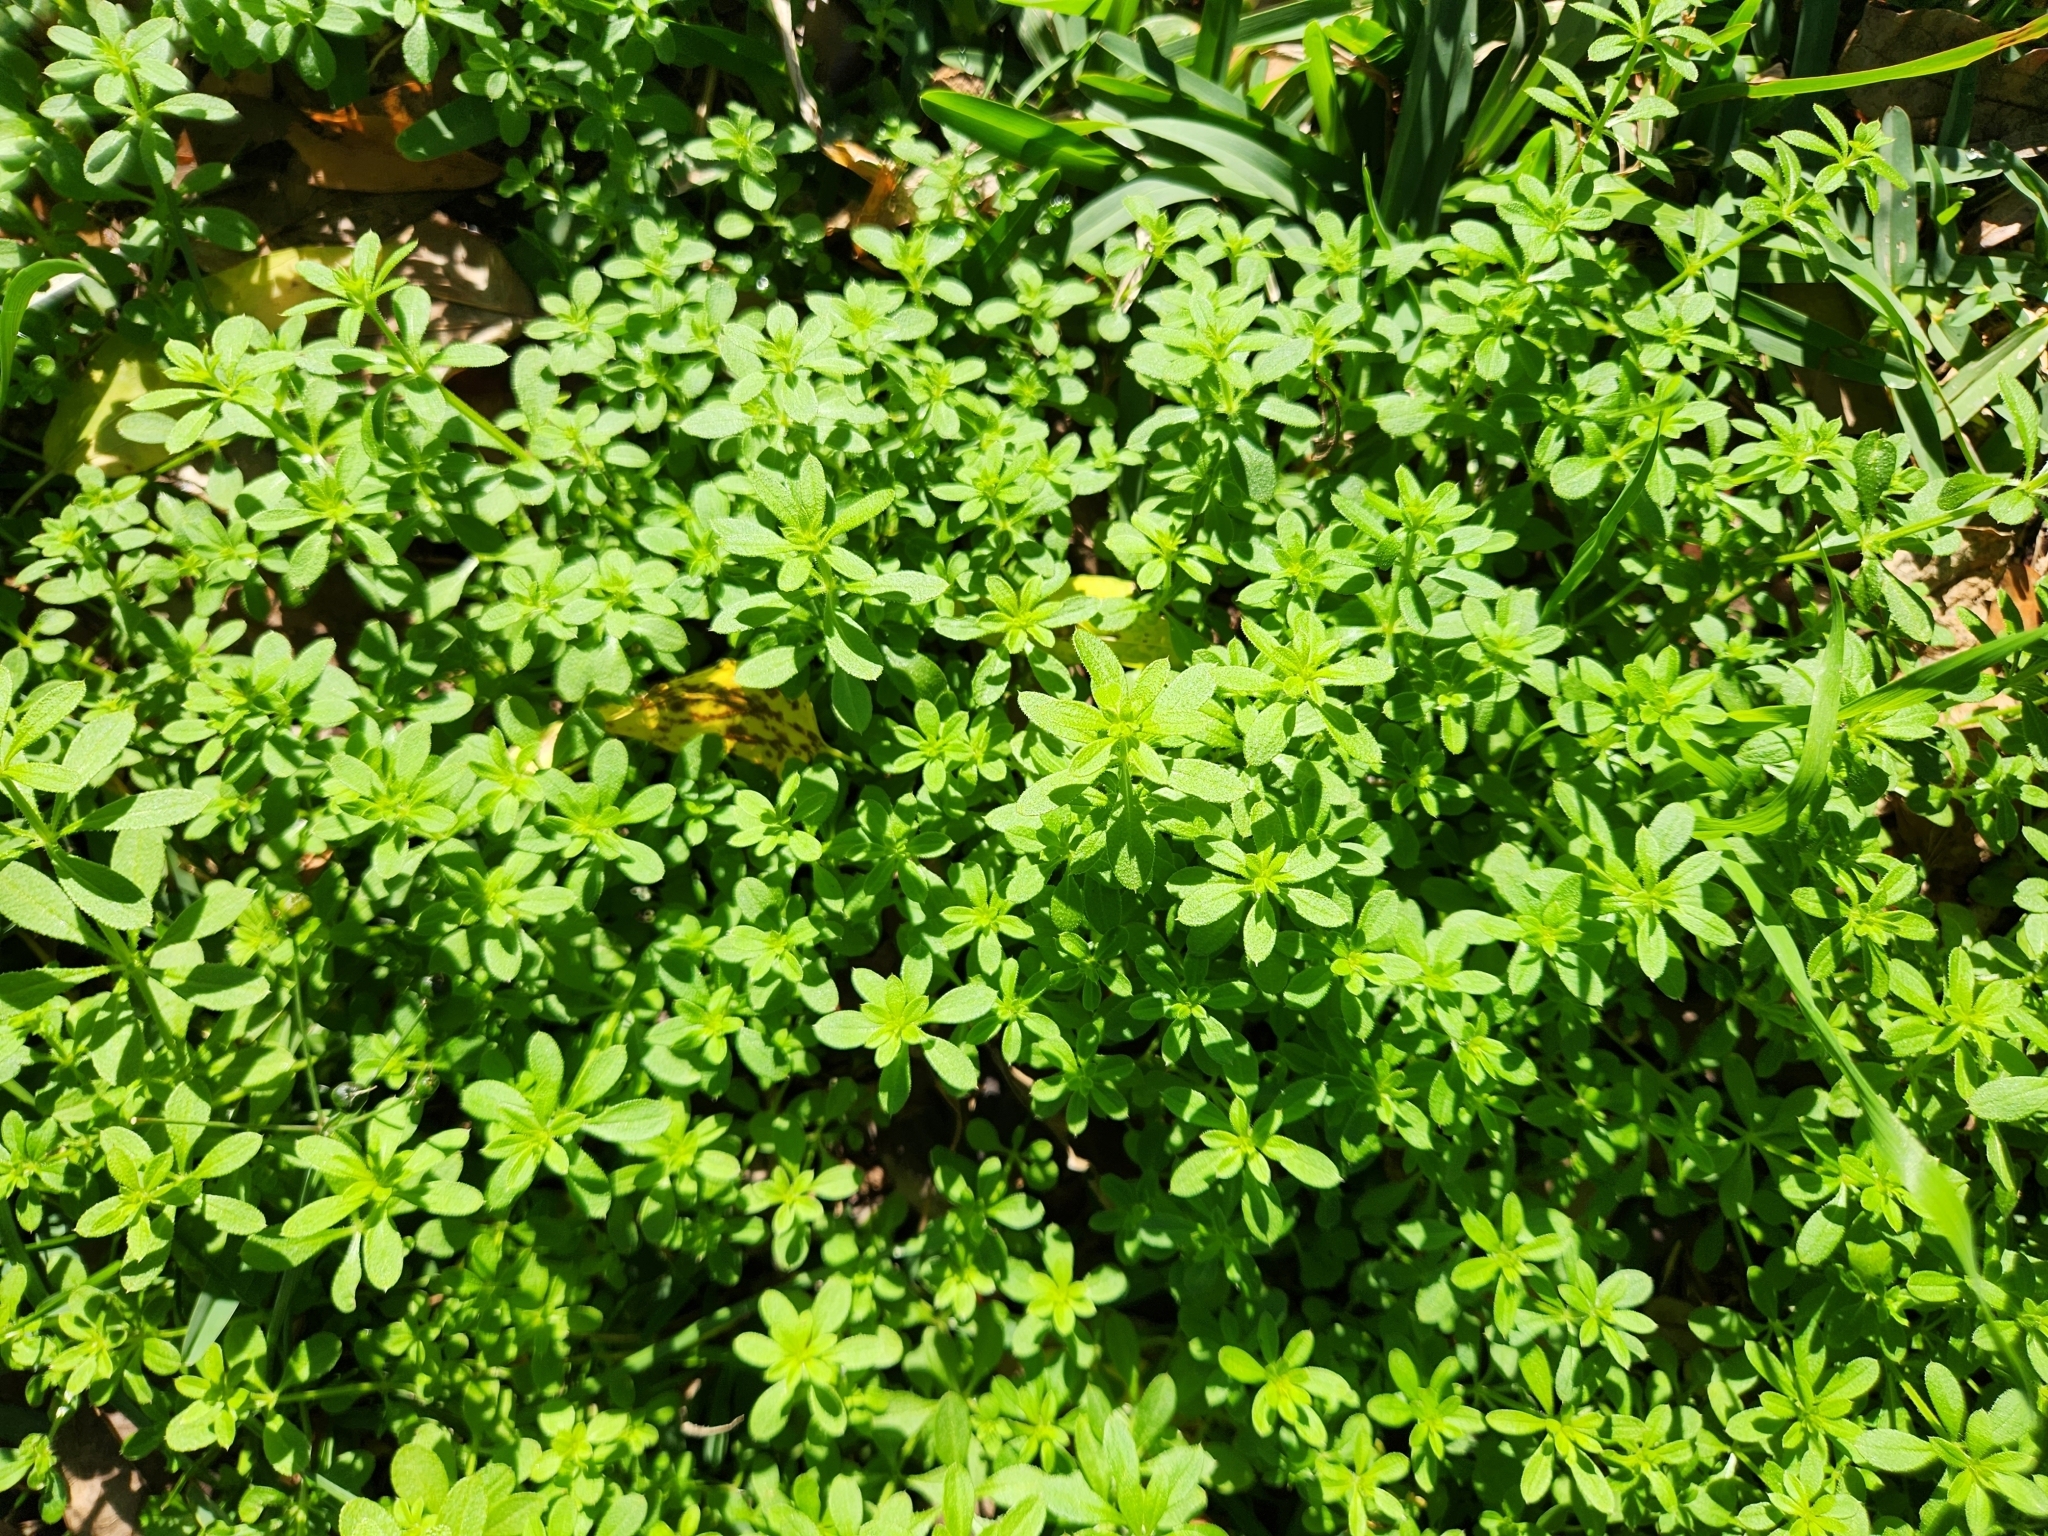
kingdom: Plantae
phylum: Tracheophyta
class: Magnoliopsida
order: Gentianales
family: Rubiaceae
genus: Galium
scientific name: Galium aparine
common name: Cleavers
